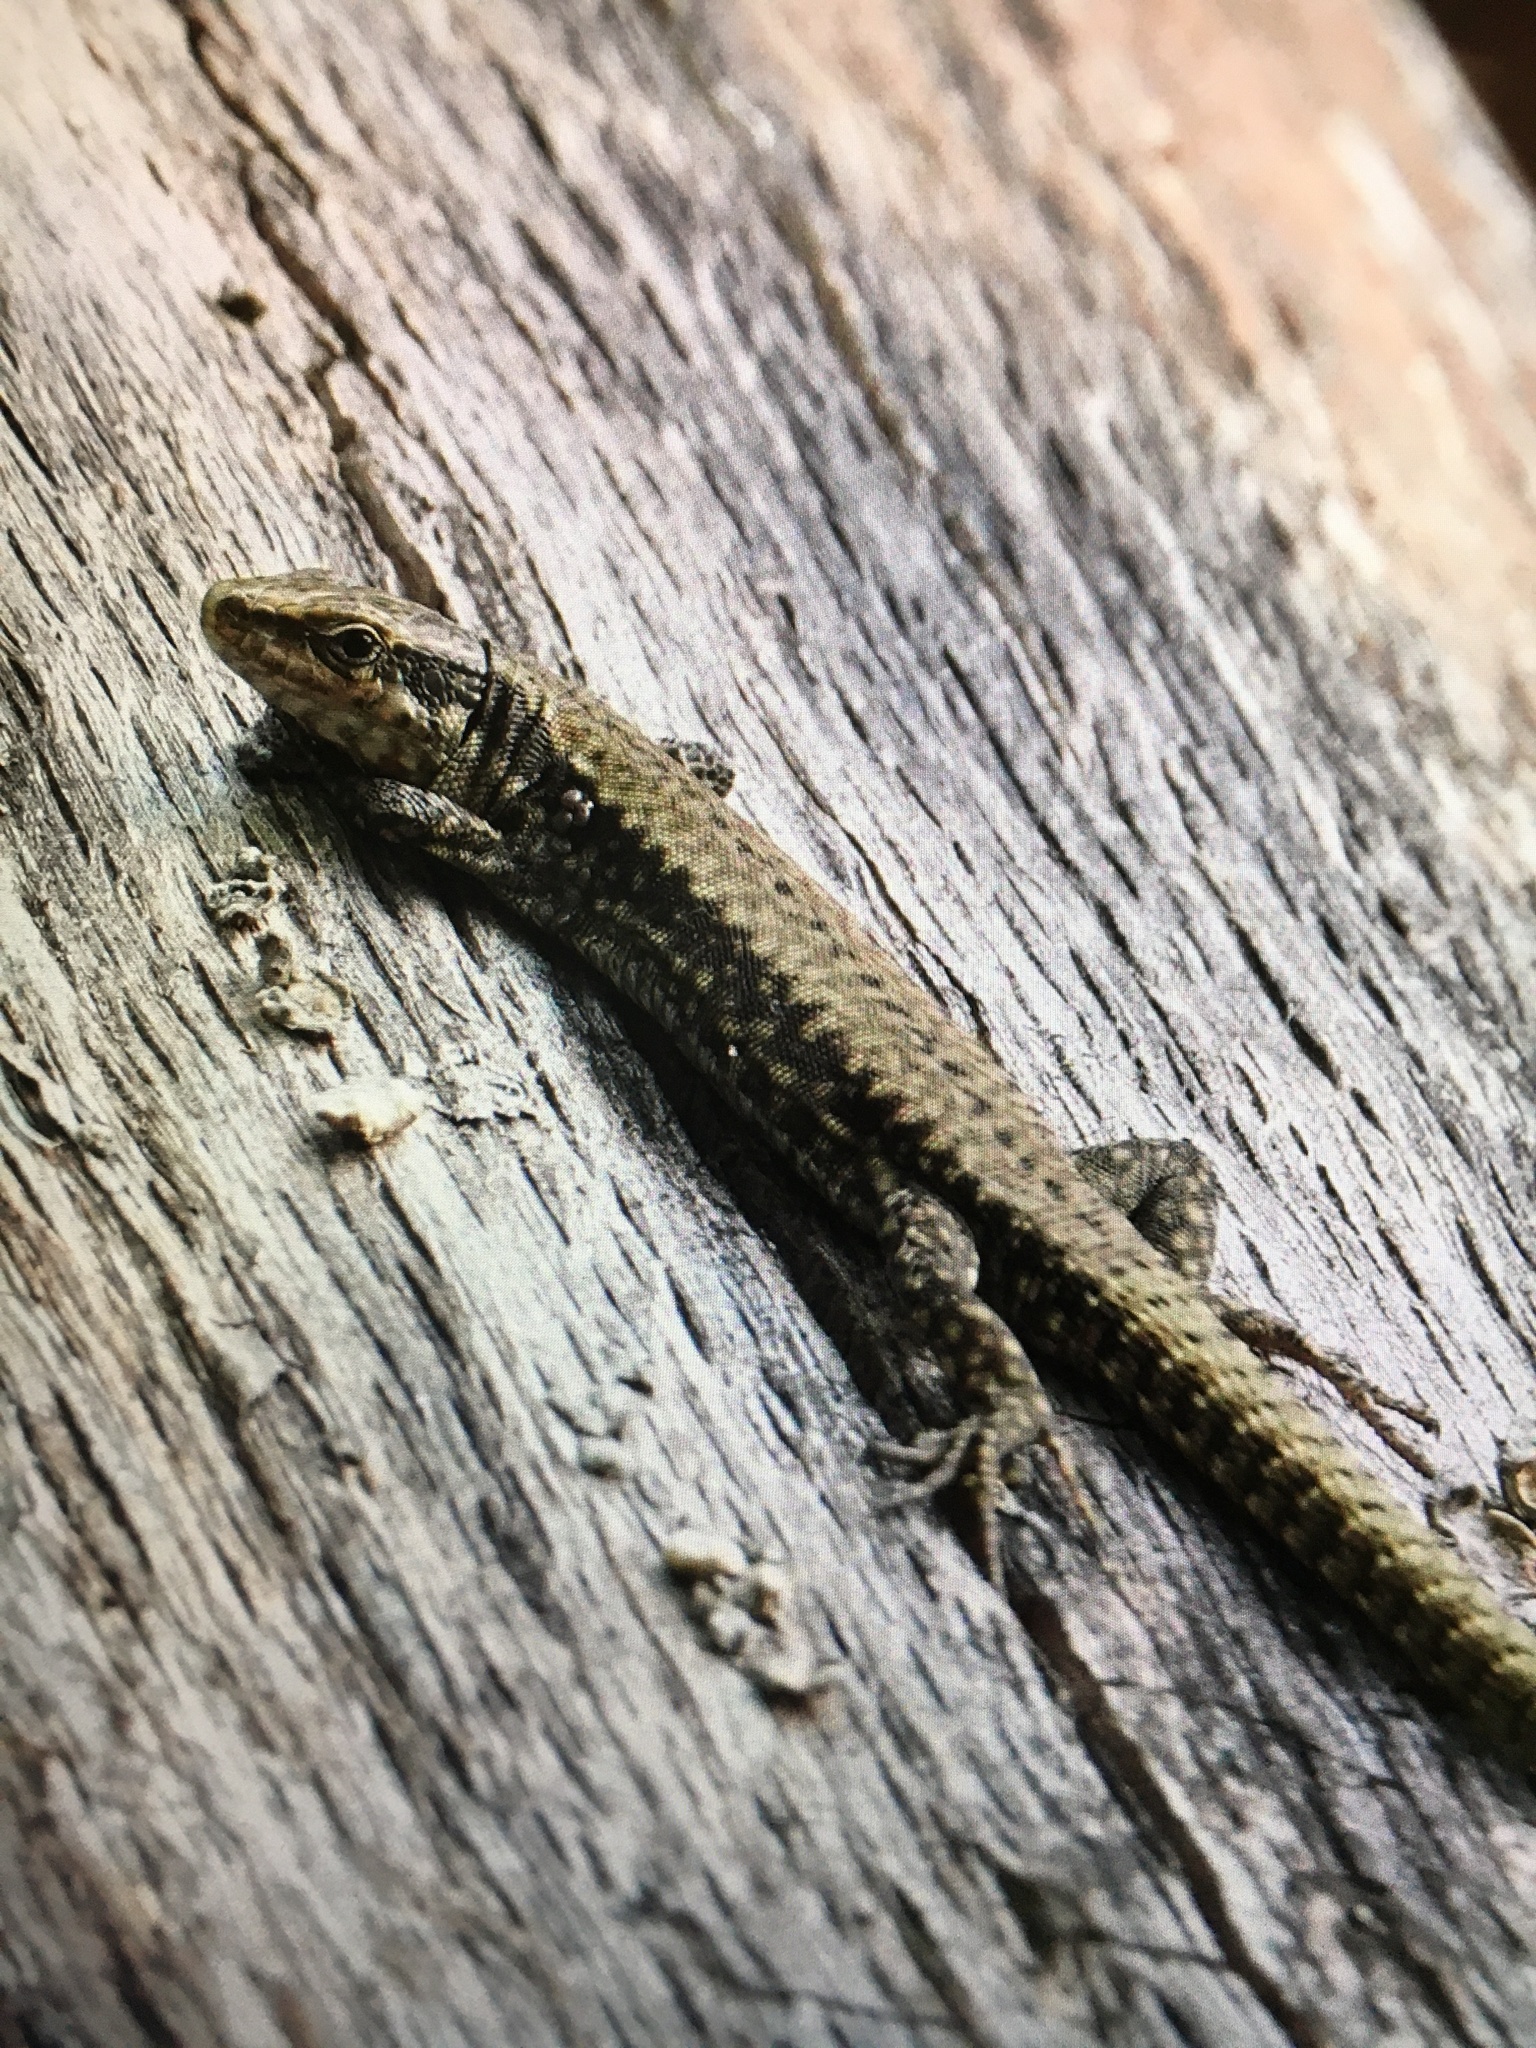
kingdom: Animalia
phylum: Chordata
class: Squamata
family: Lacertidae
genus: Podarcis
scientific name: Podarcis muralis
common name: Common wall lizard
